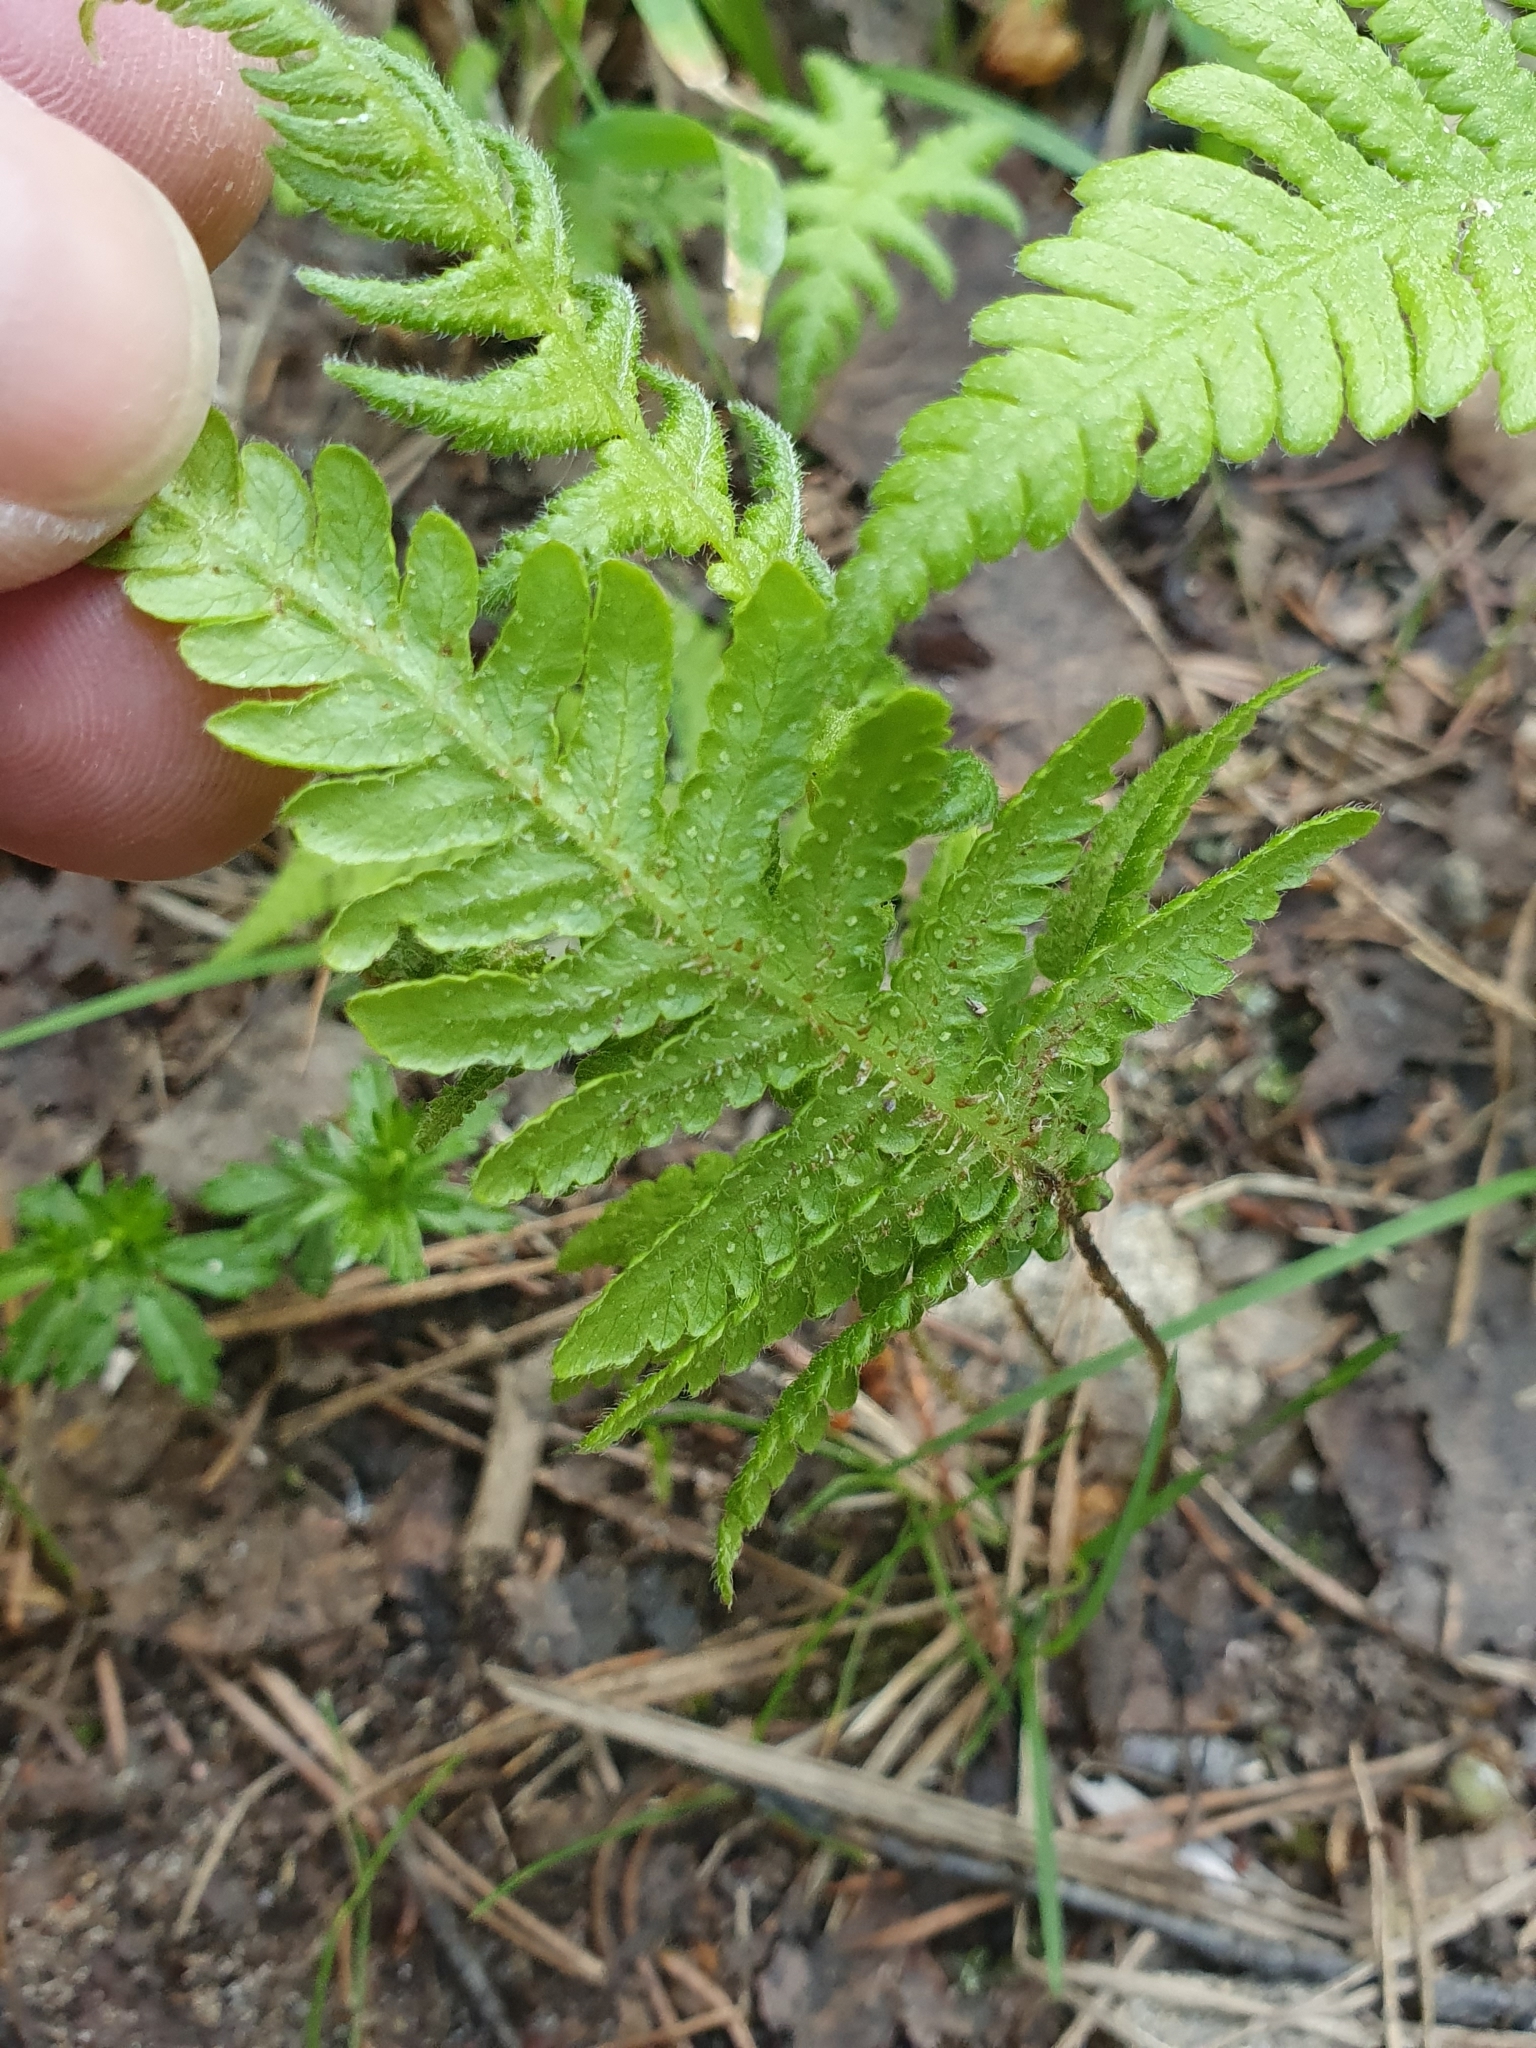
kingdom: Plantae
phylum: Tracheophyta
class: Polypodiopsida
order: Polypodiales
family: Thelypteridaceae
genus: Phegopteris
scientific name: Phegopteris connectilis
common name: Beech fern
